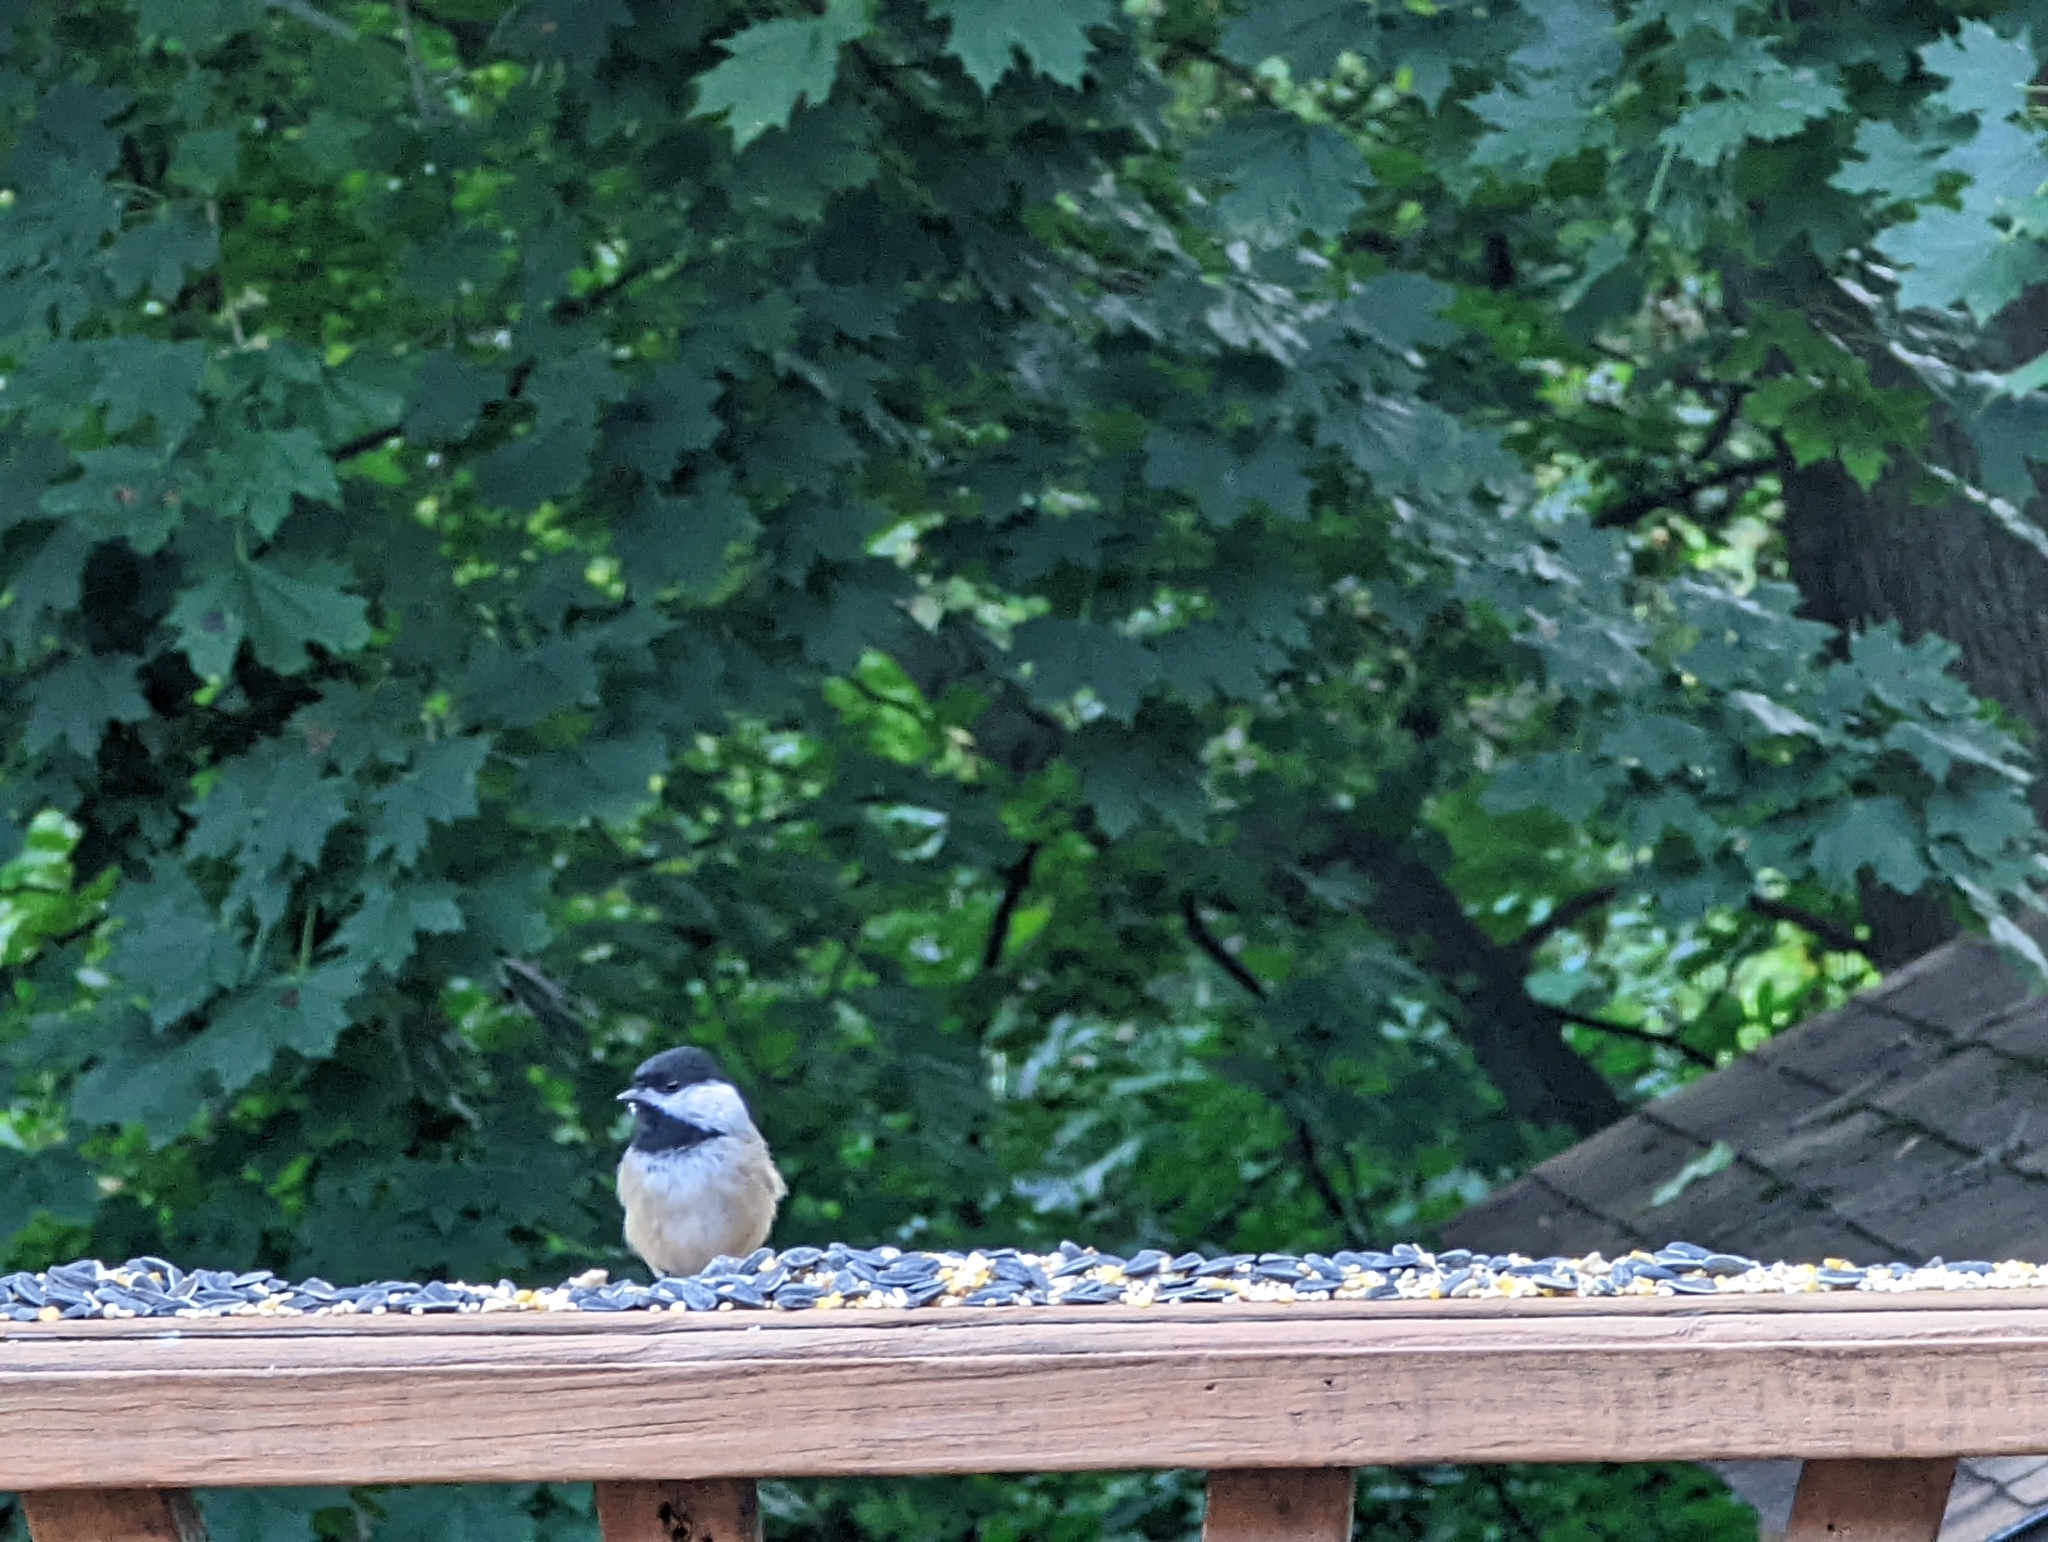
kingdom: Animalia
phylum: Chordata
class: Aves
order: Passeriformes
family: Paridae
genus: Poecile
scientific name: Poecile carolinensis
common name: Carolina chickadee
